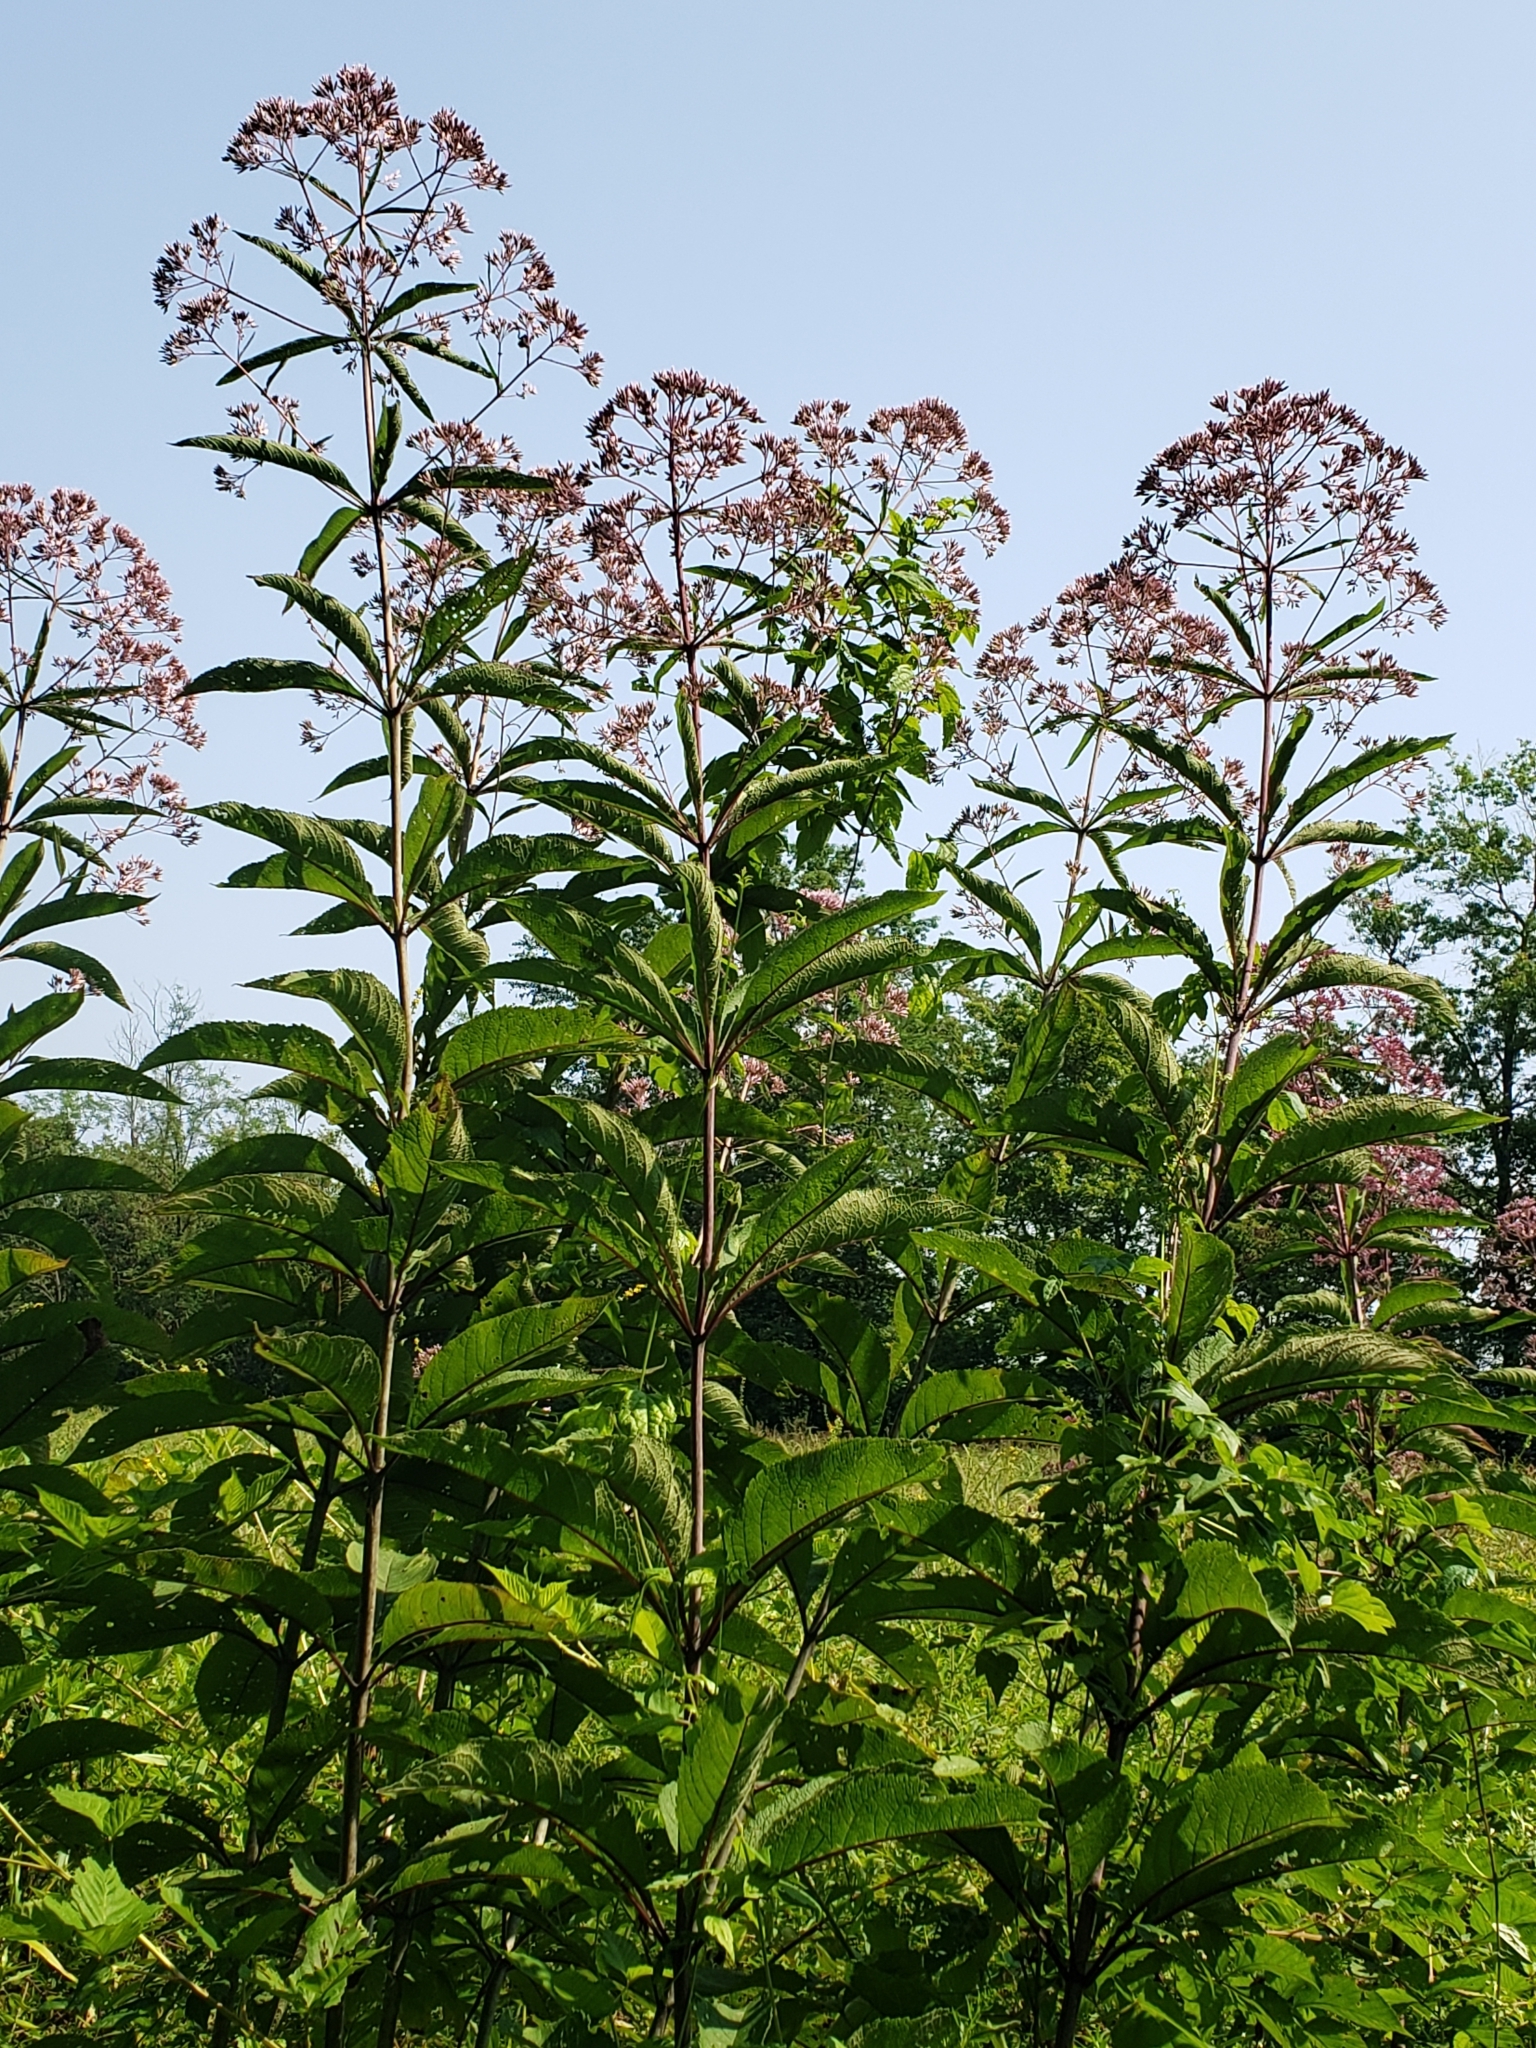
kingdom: Plantae
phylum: Tracheophyta
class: Magnoliopsida
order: Asterales
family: Asteraceae
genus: Eutrochium
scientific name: Eutrochium fistulosum
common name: Trumpetweed
